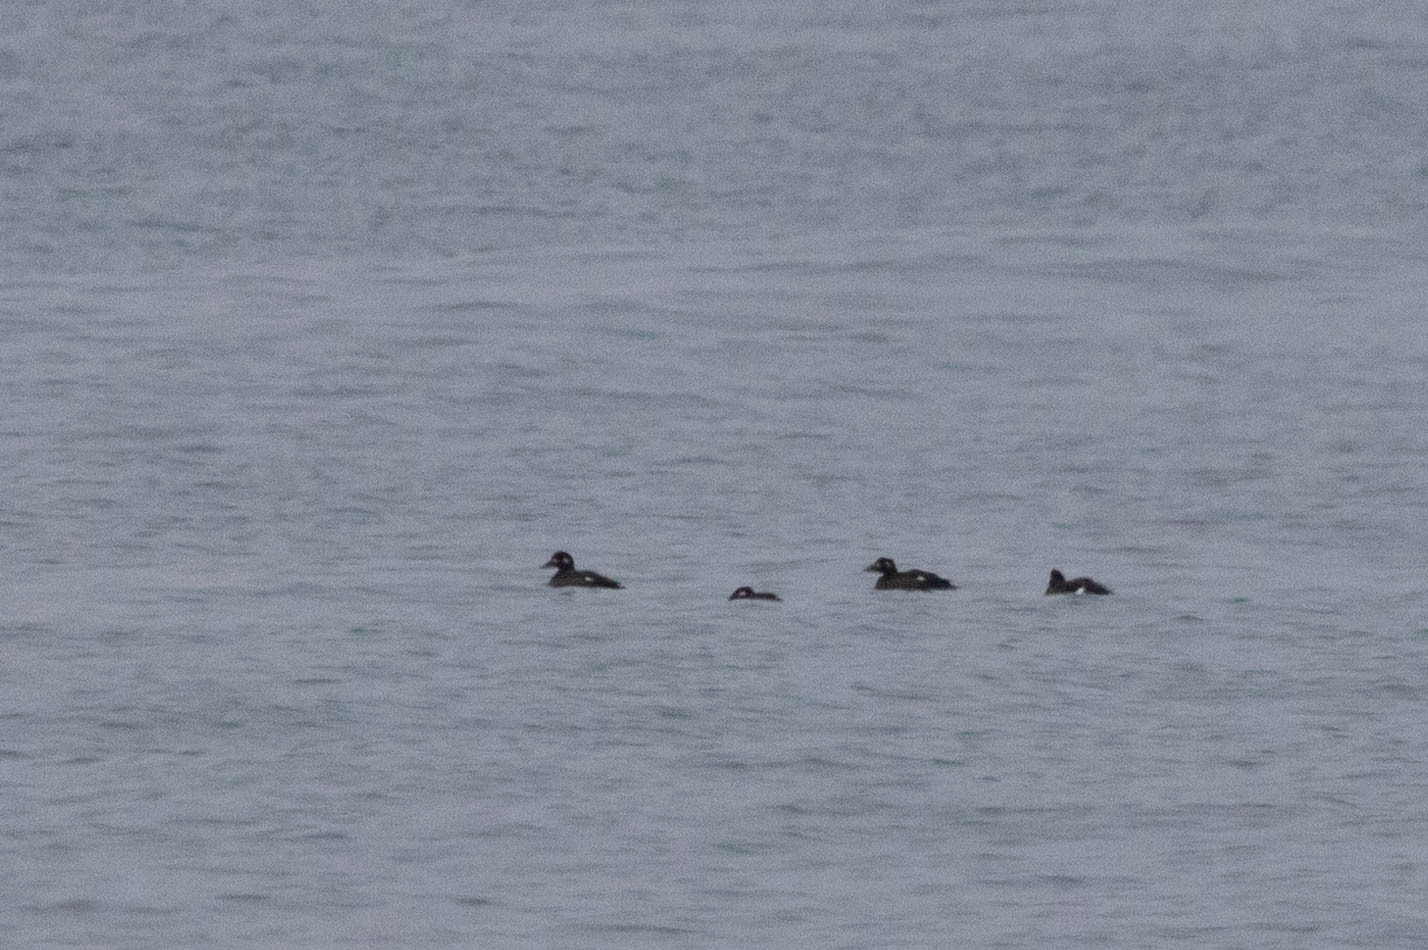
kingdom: Animalia
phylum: Chordata
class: Aves
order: Anseriformes
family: Anatidae
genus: Melanitta
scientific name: Melanitta deglandi
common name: White-winged scoter
